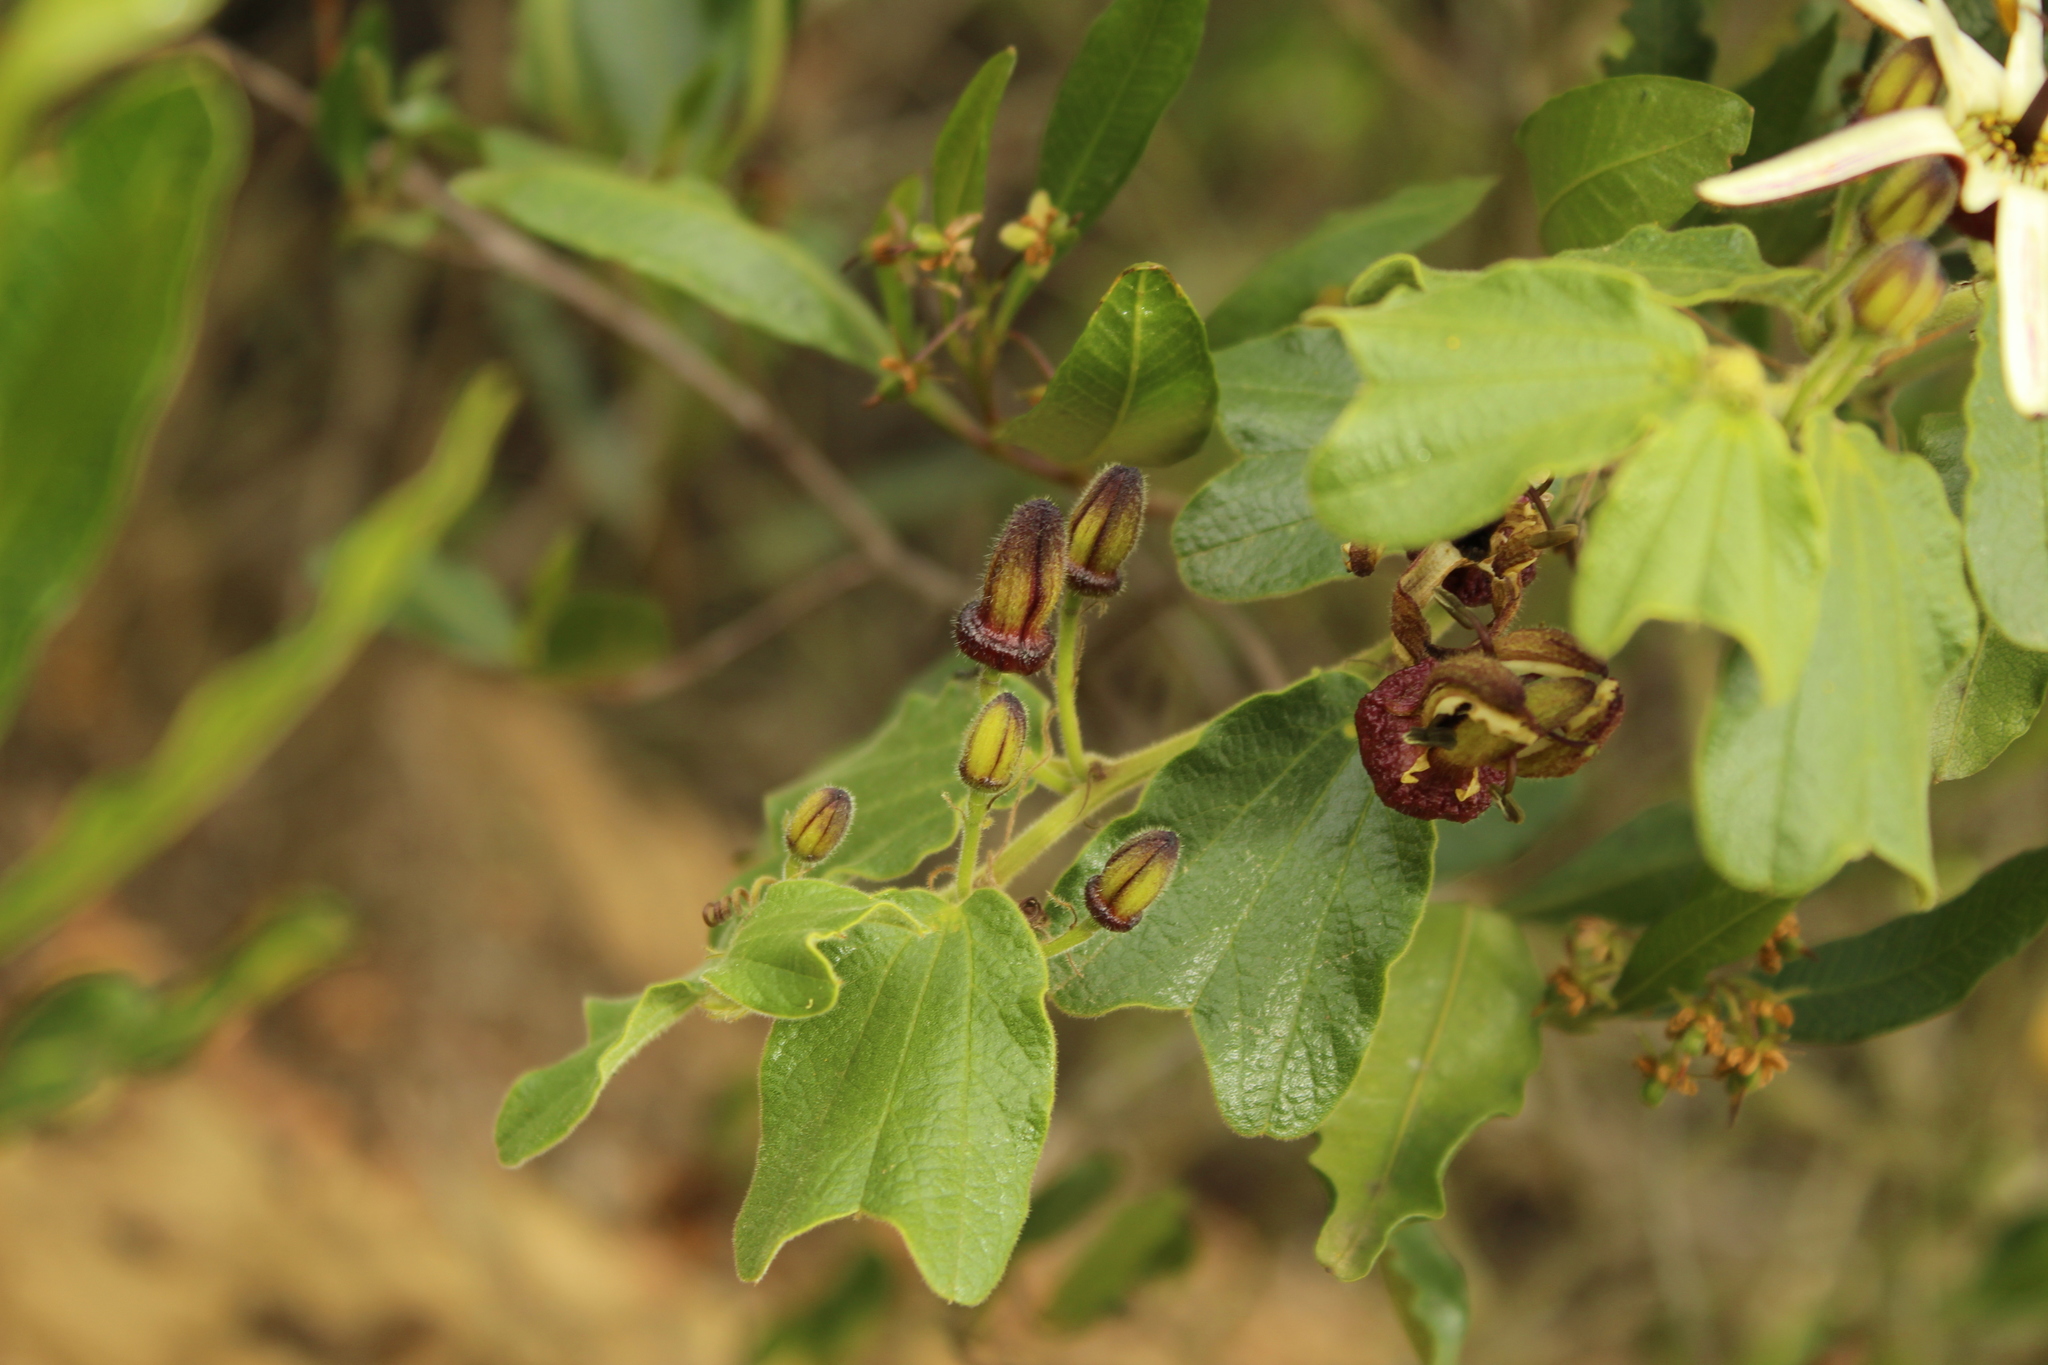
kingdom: Plantae
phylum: Tracheophyta
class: Magnoliopsida
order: Malpighiales
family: Passifloraceae
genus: Passiflora
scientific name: Passiflora bogotensis
